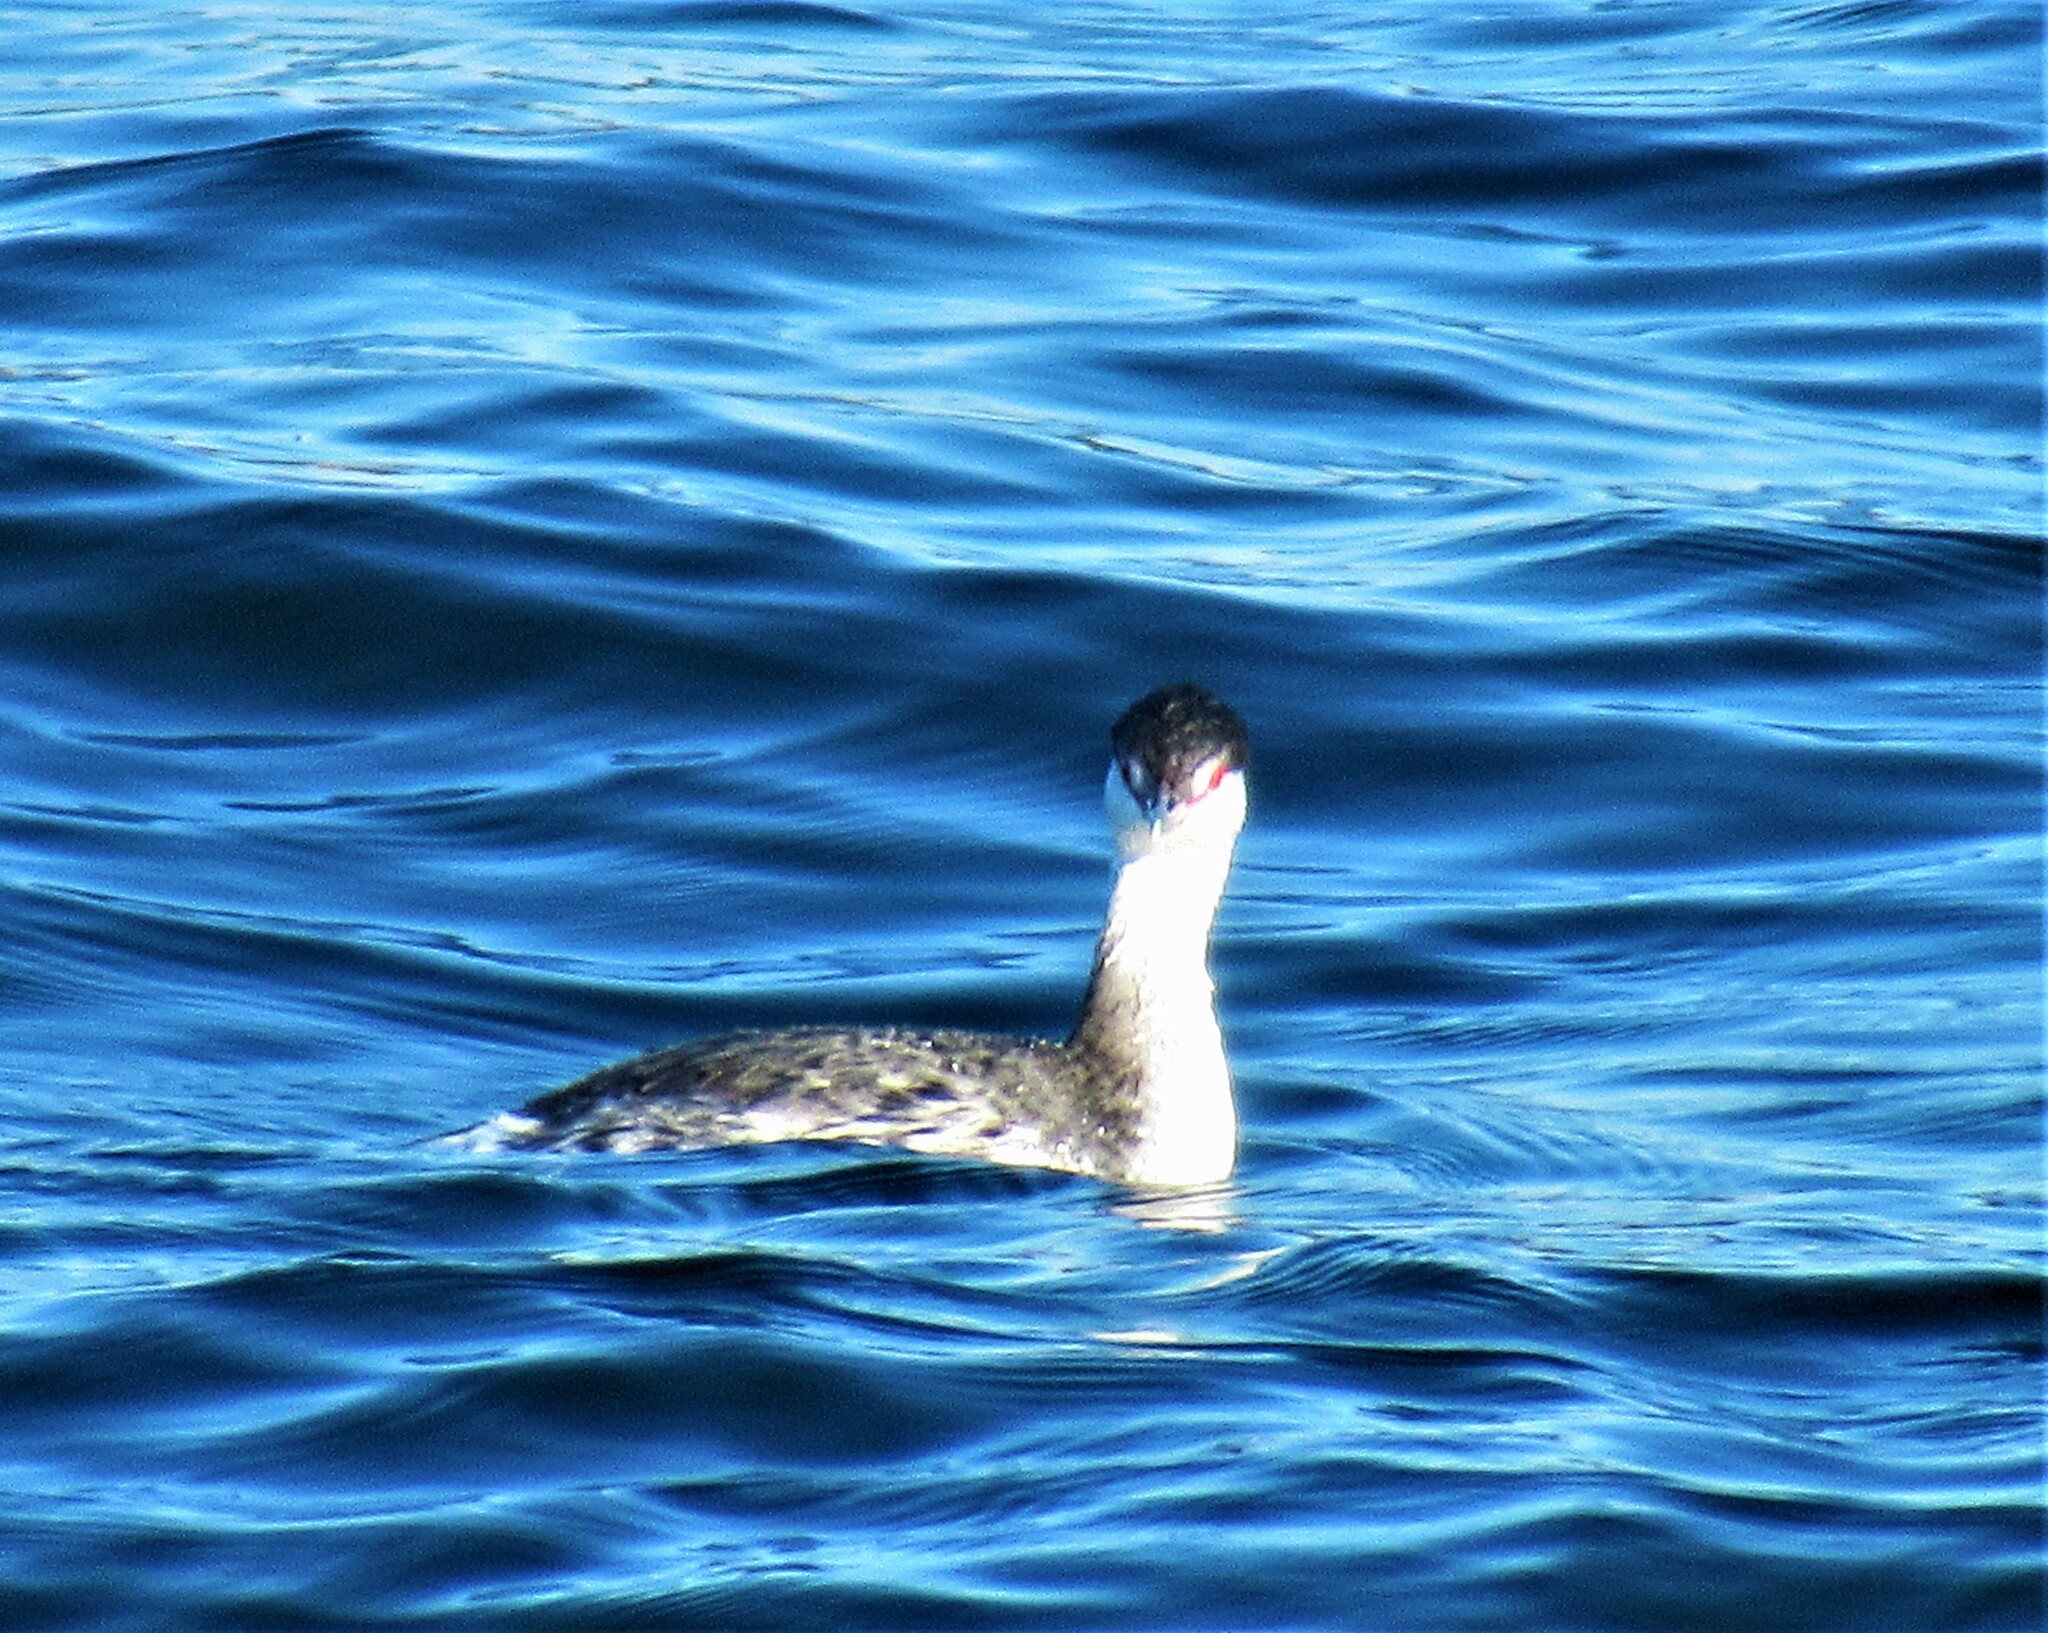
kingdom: Animalia
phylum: Chordata
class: Aves
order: Podicipediformes
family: Podicipedidae
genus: Podiceps
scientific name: Podiceps auritus
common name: Horned grebe
